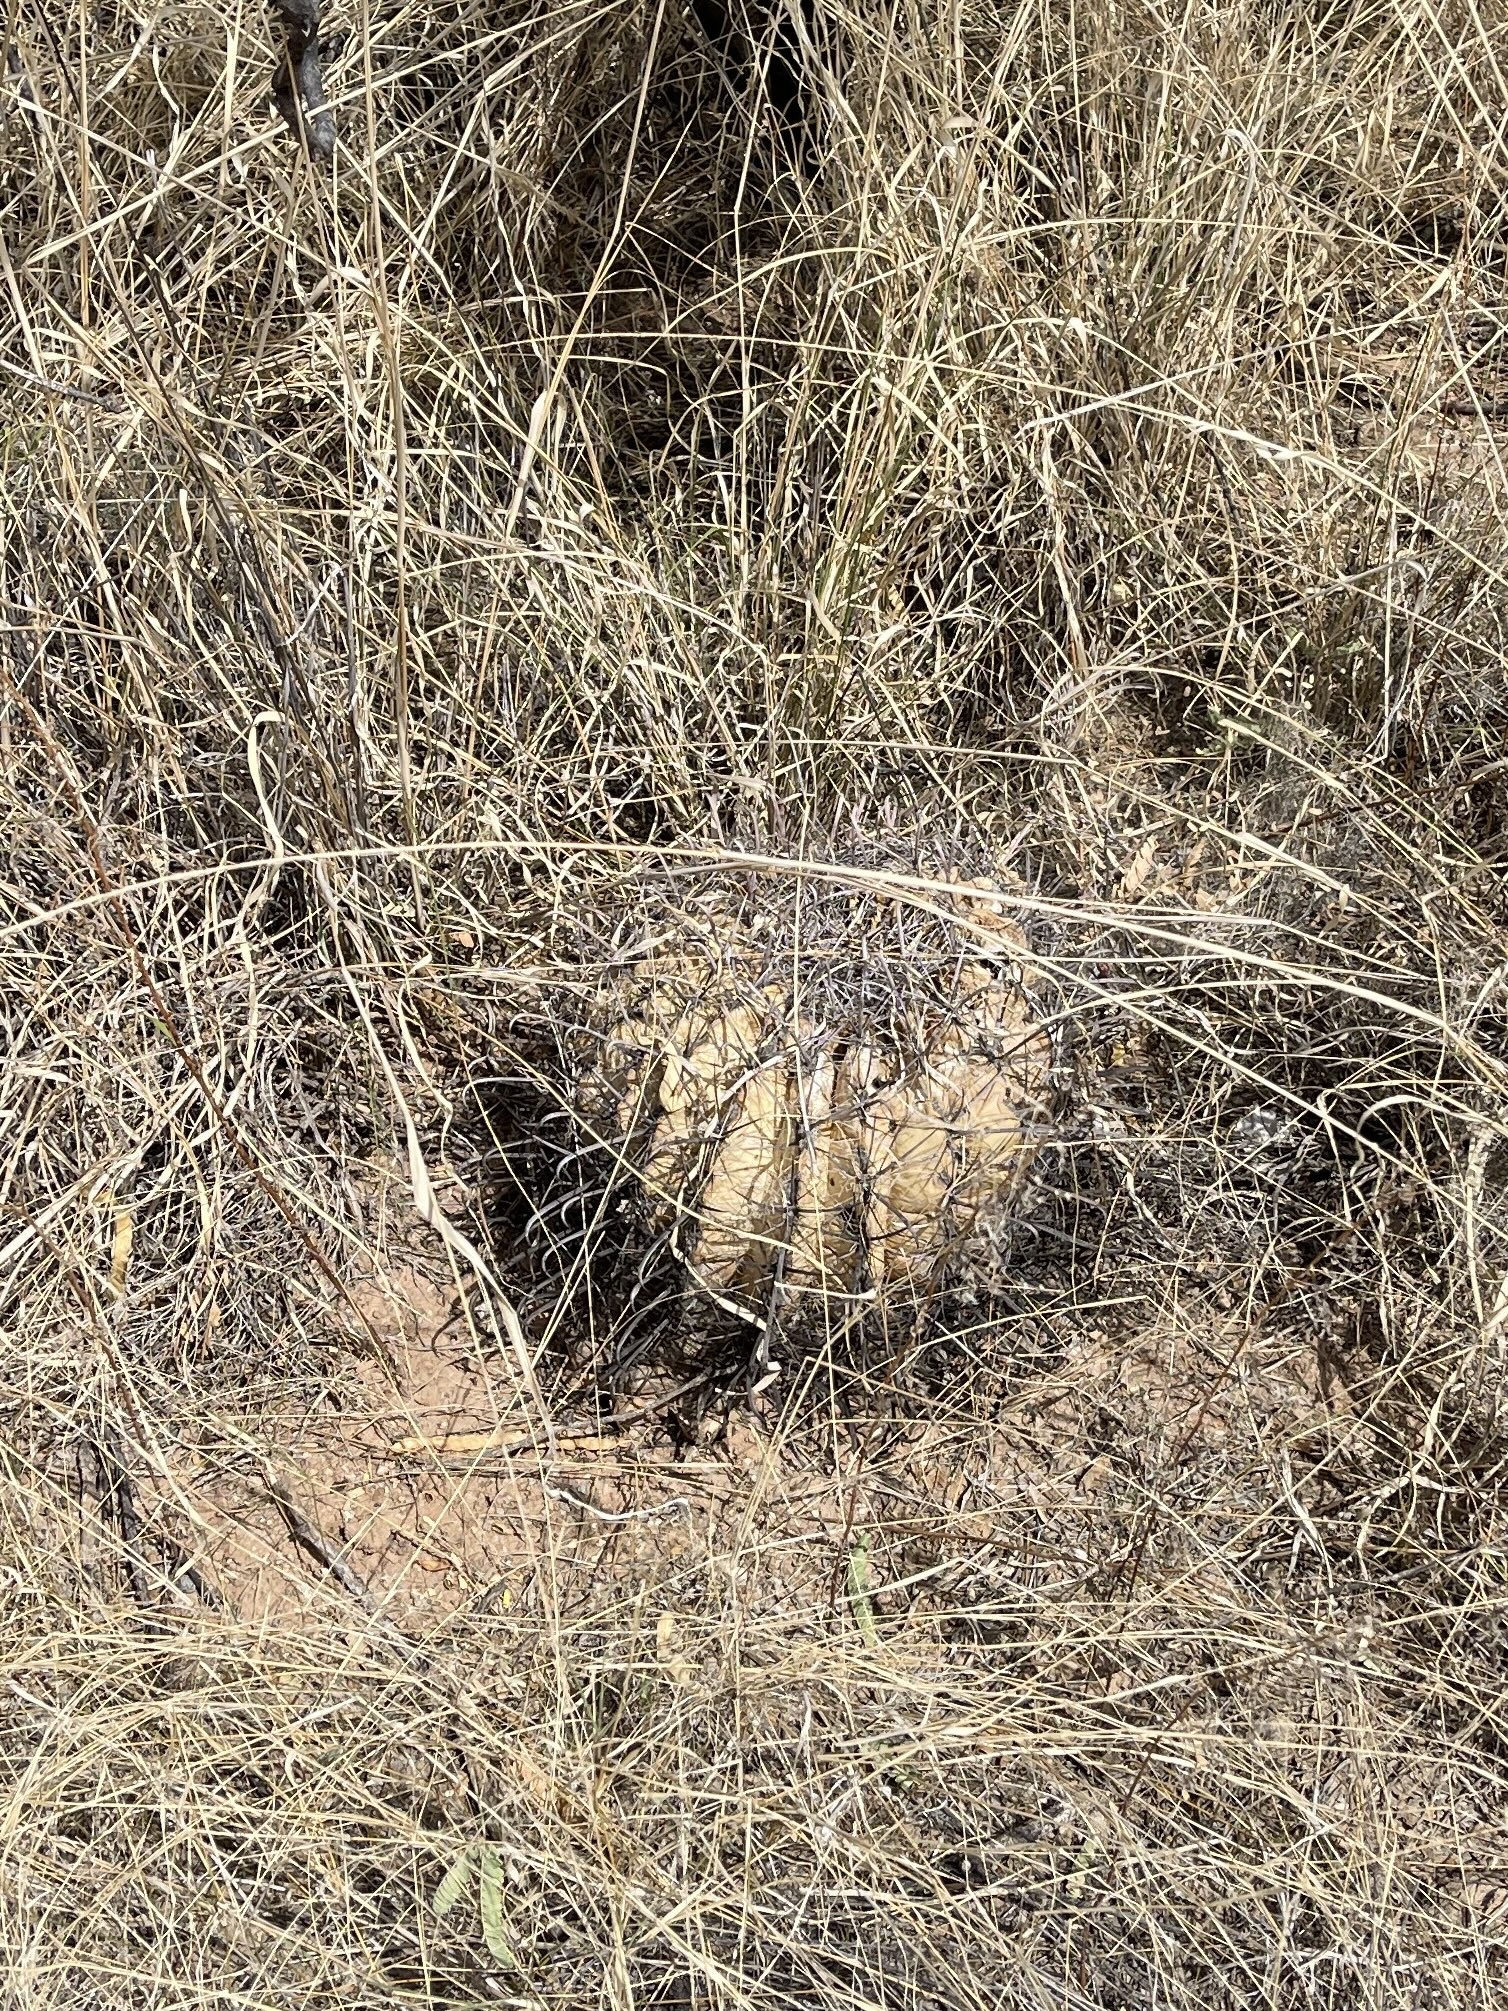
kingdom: Plantae
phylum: Tracheophyta
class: Magnoliopsida
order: Caryophyllales
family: Cactaceae
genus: Ferocactus
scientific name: Ferocactus wislizeni
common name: Candy barrel cactus
